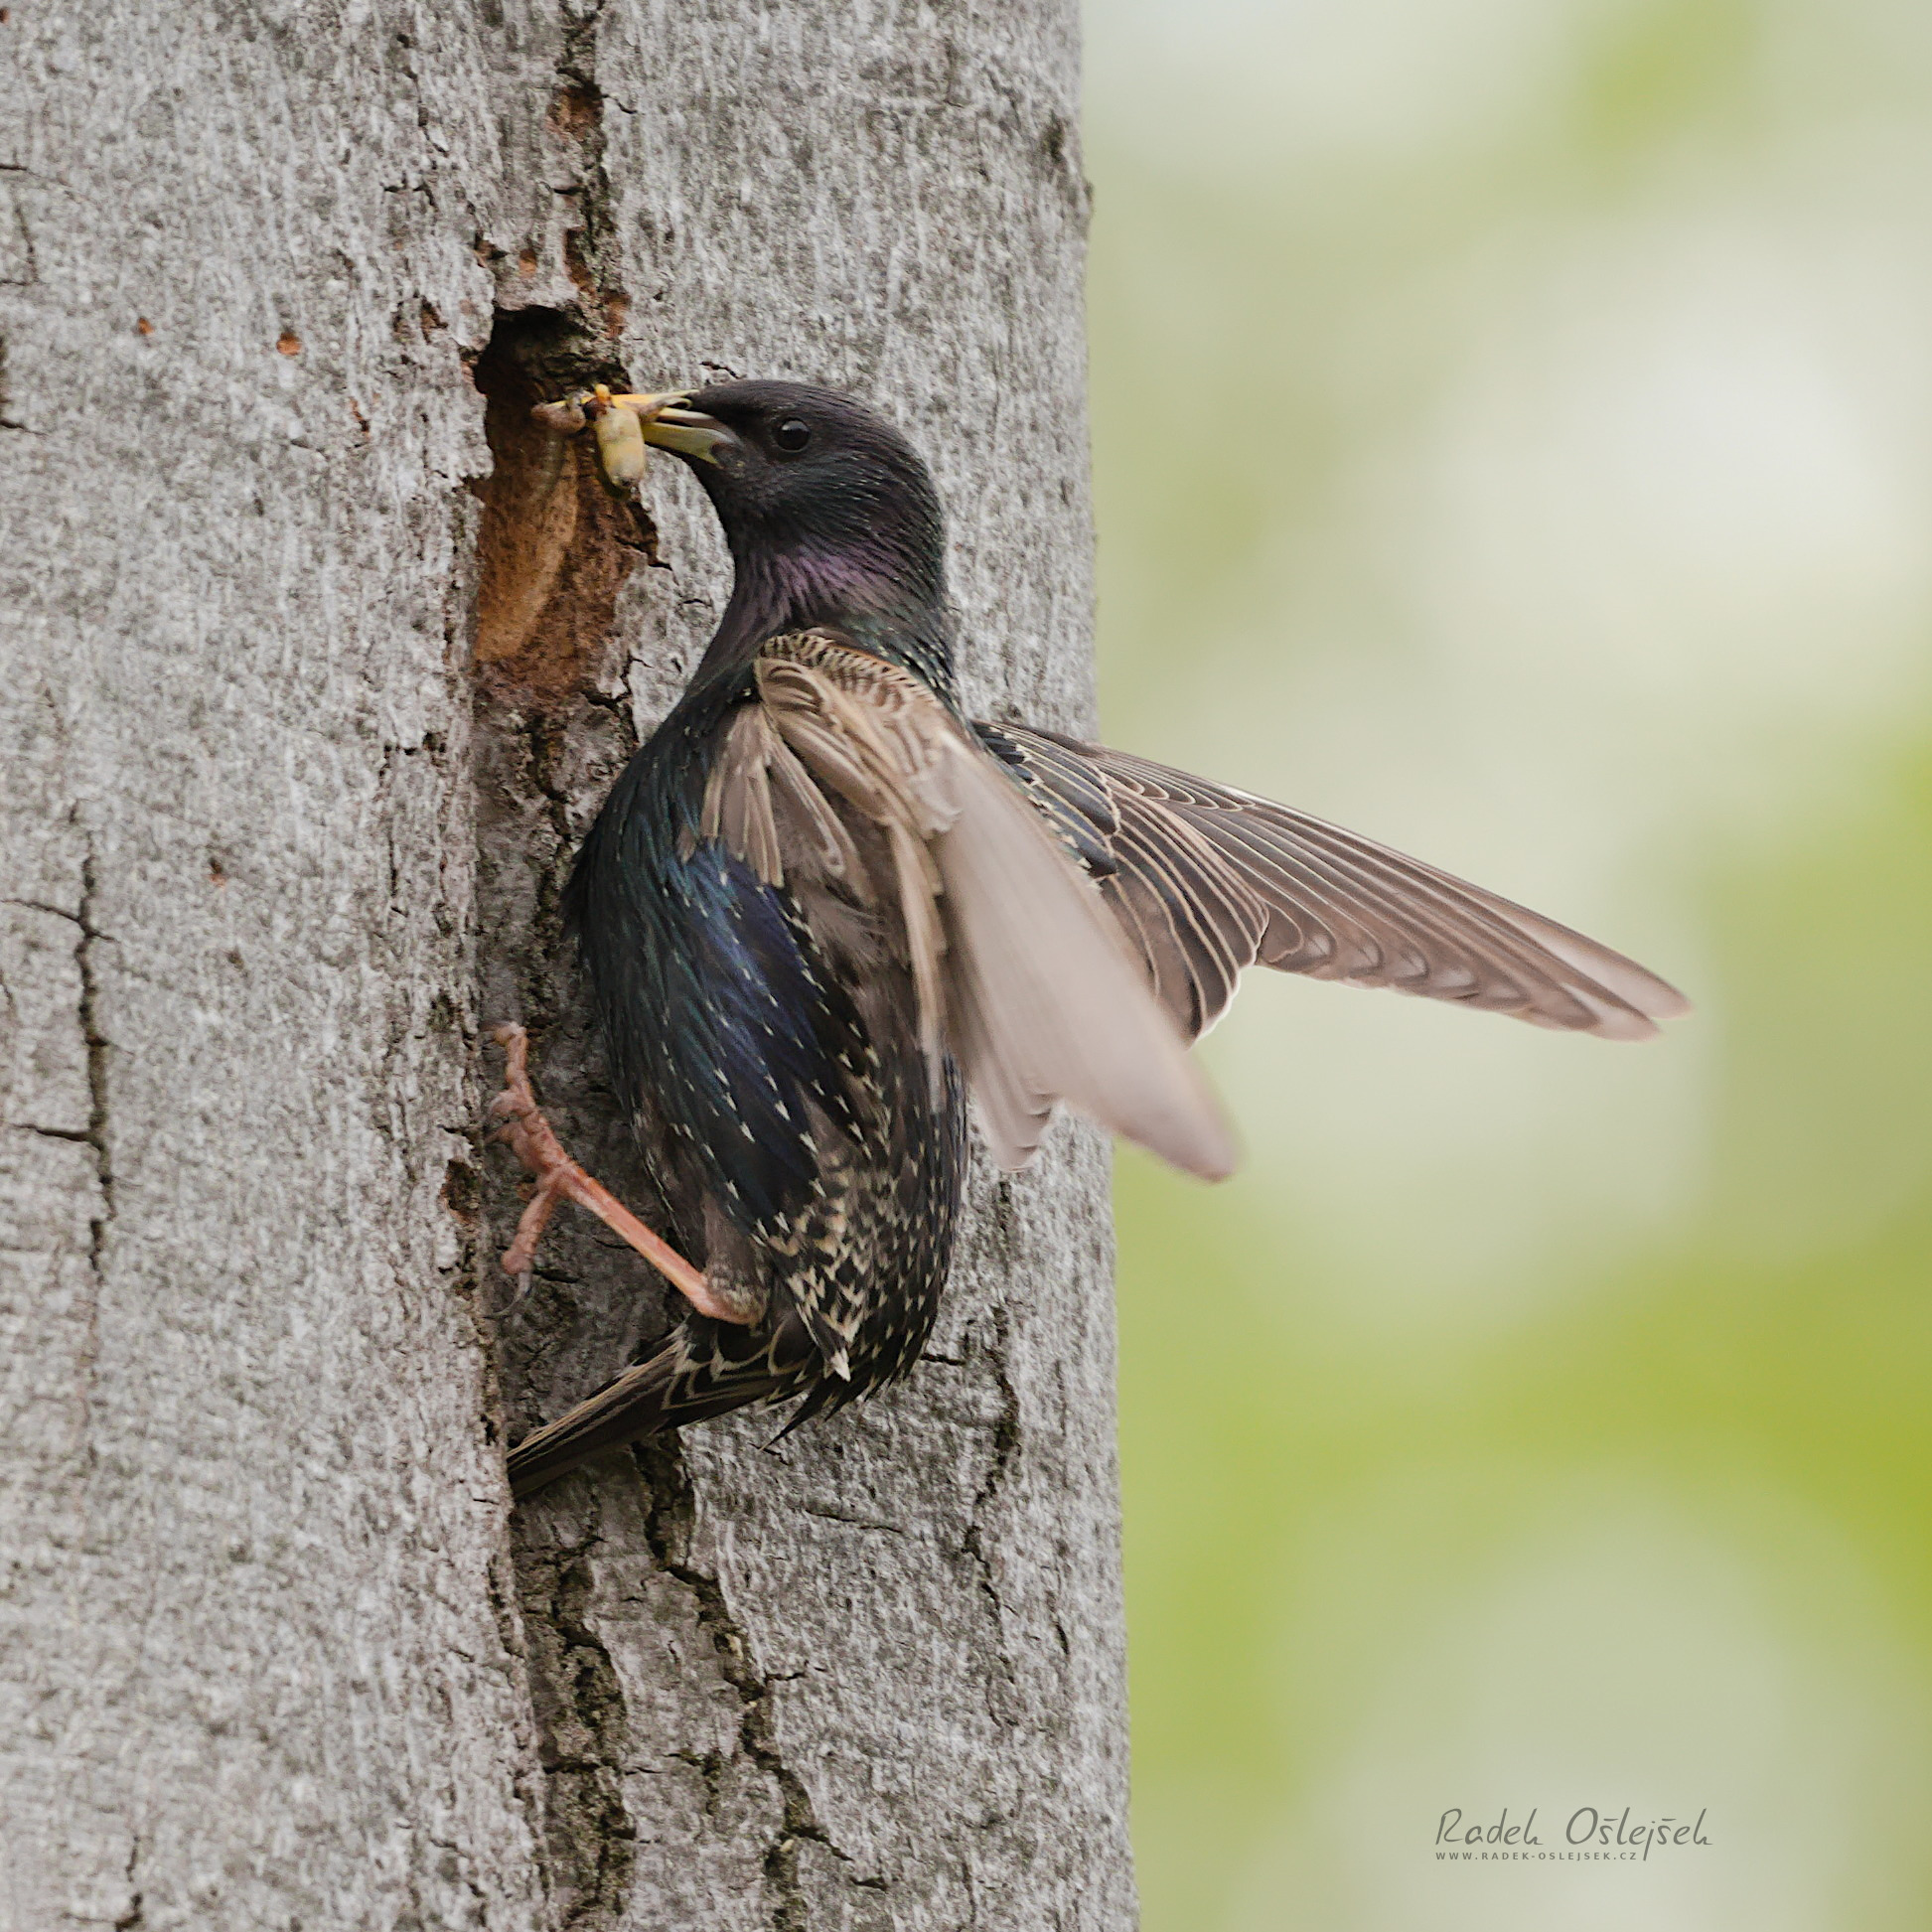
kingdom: Animalia
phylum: Chordata
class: Aves
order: Passeriformes
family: Sturnidae
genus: Sturnus
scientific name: Sturnus vulgaris
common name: Common starling
